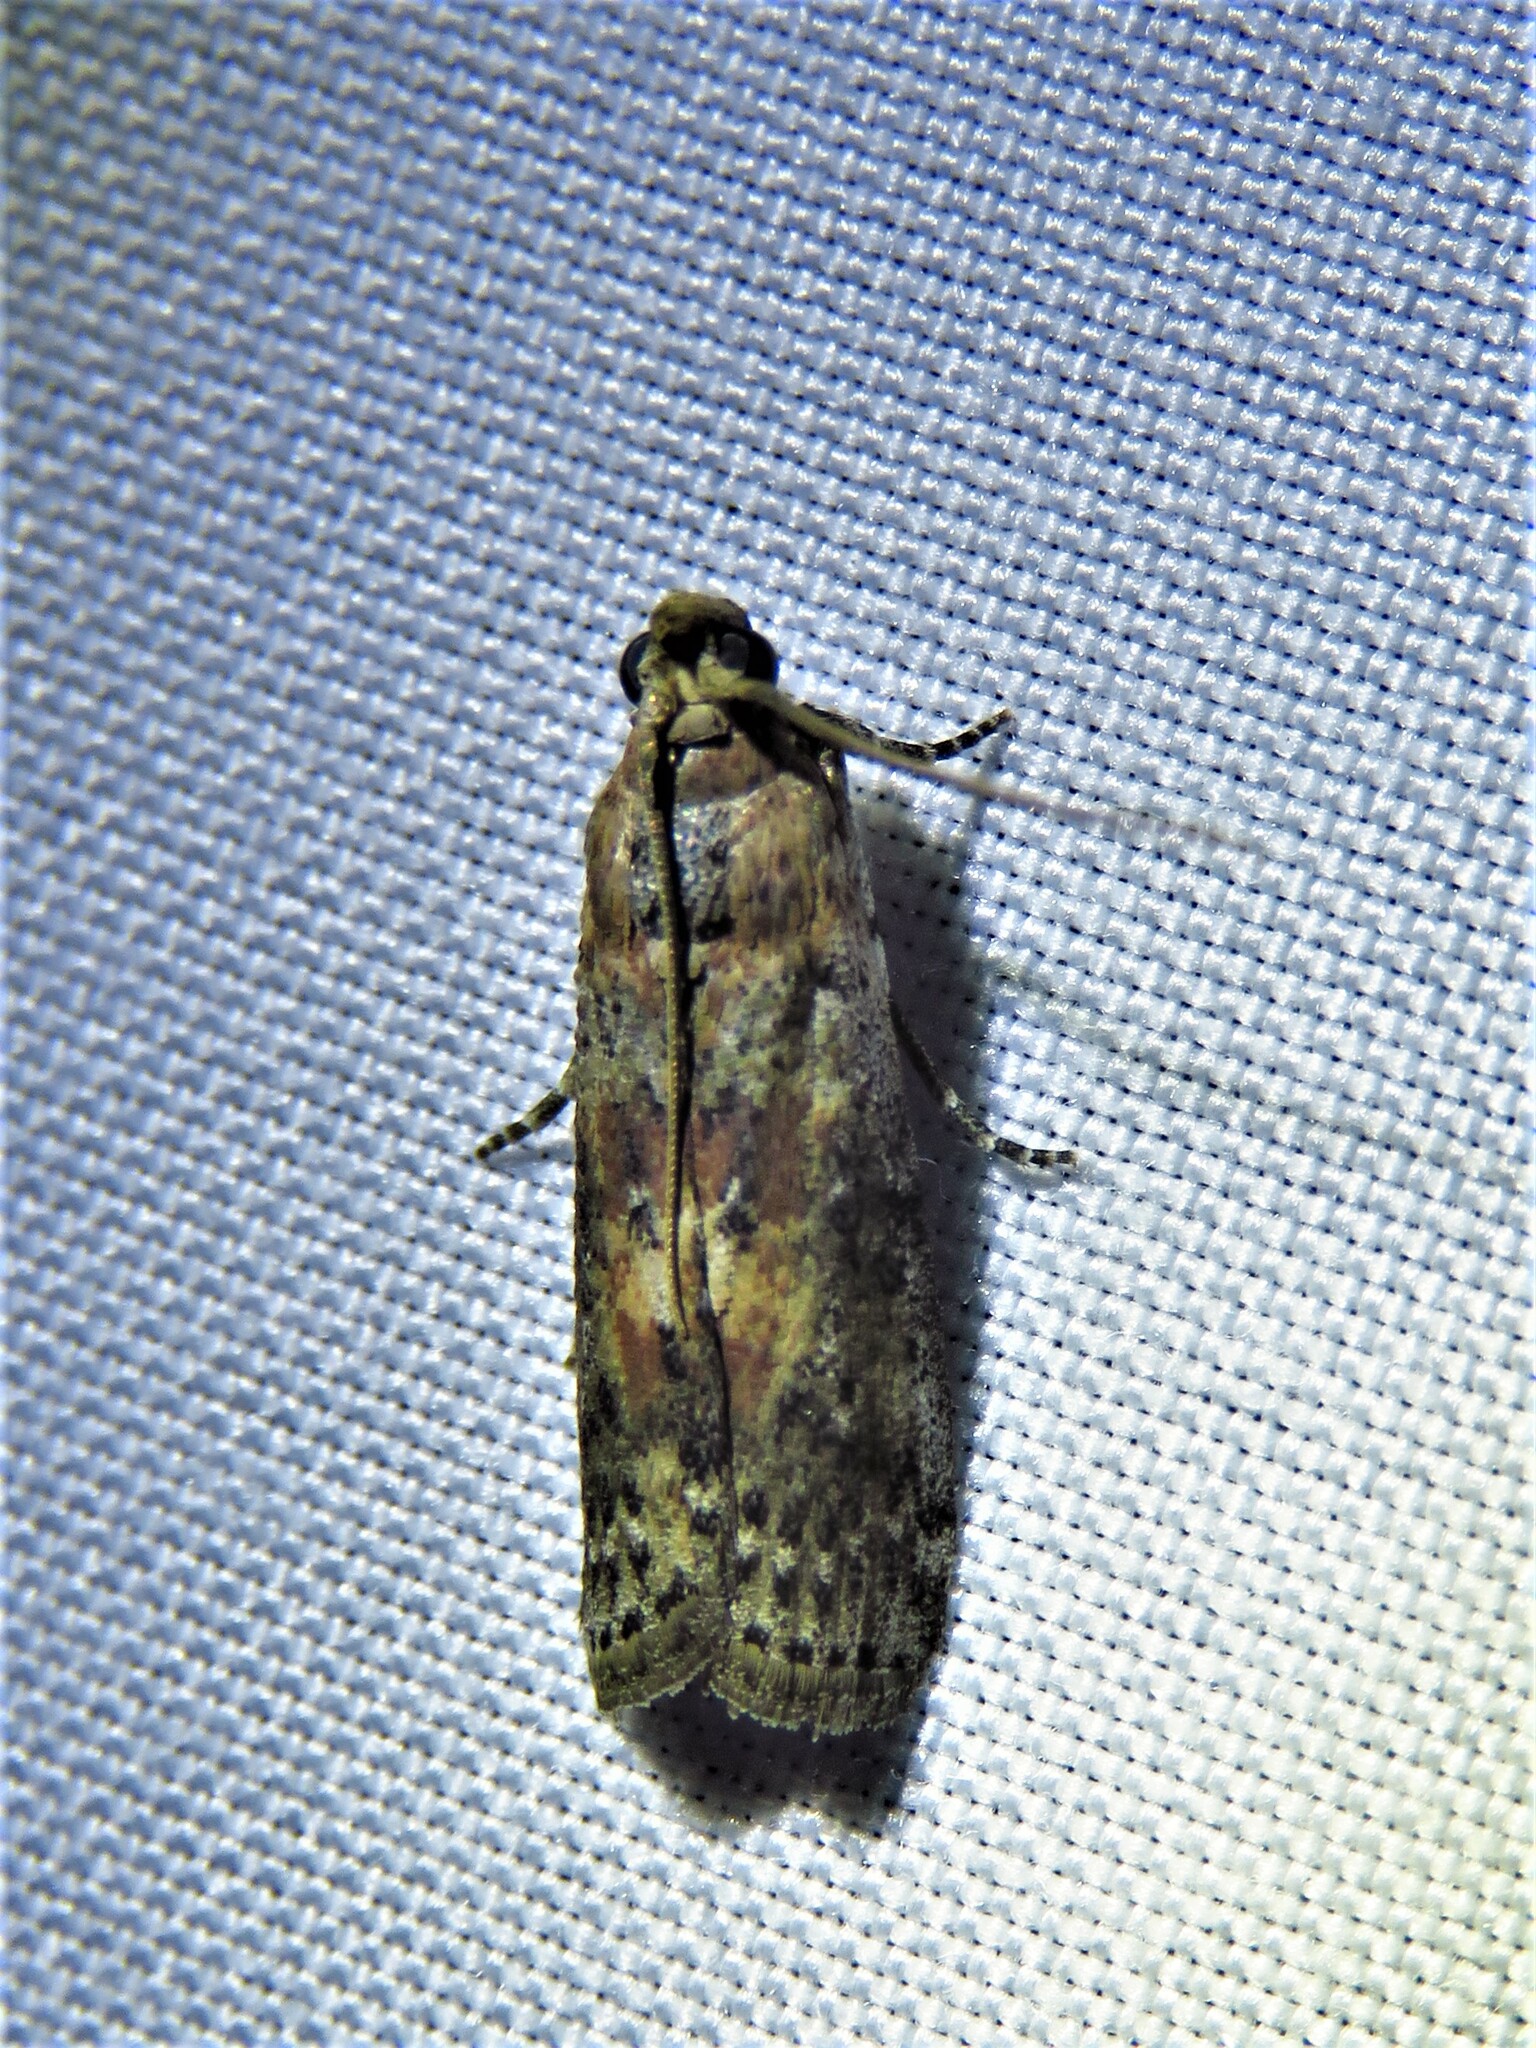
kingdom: Animalia
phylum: Arthropoda
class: Insecta
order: Lepidoptera
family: Pyralidae
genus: Sciota
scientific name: Sciota celtidella
